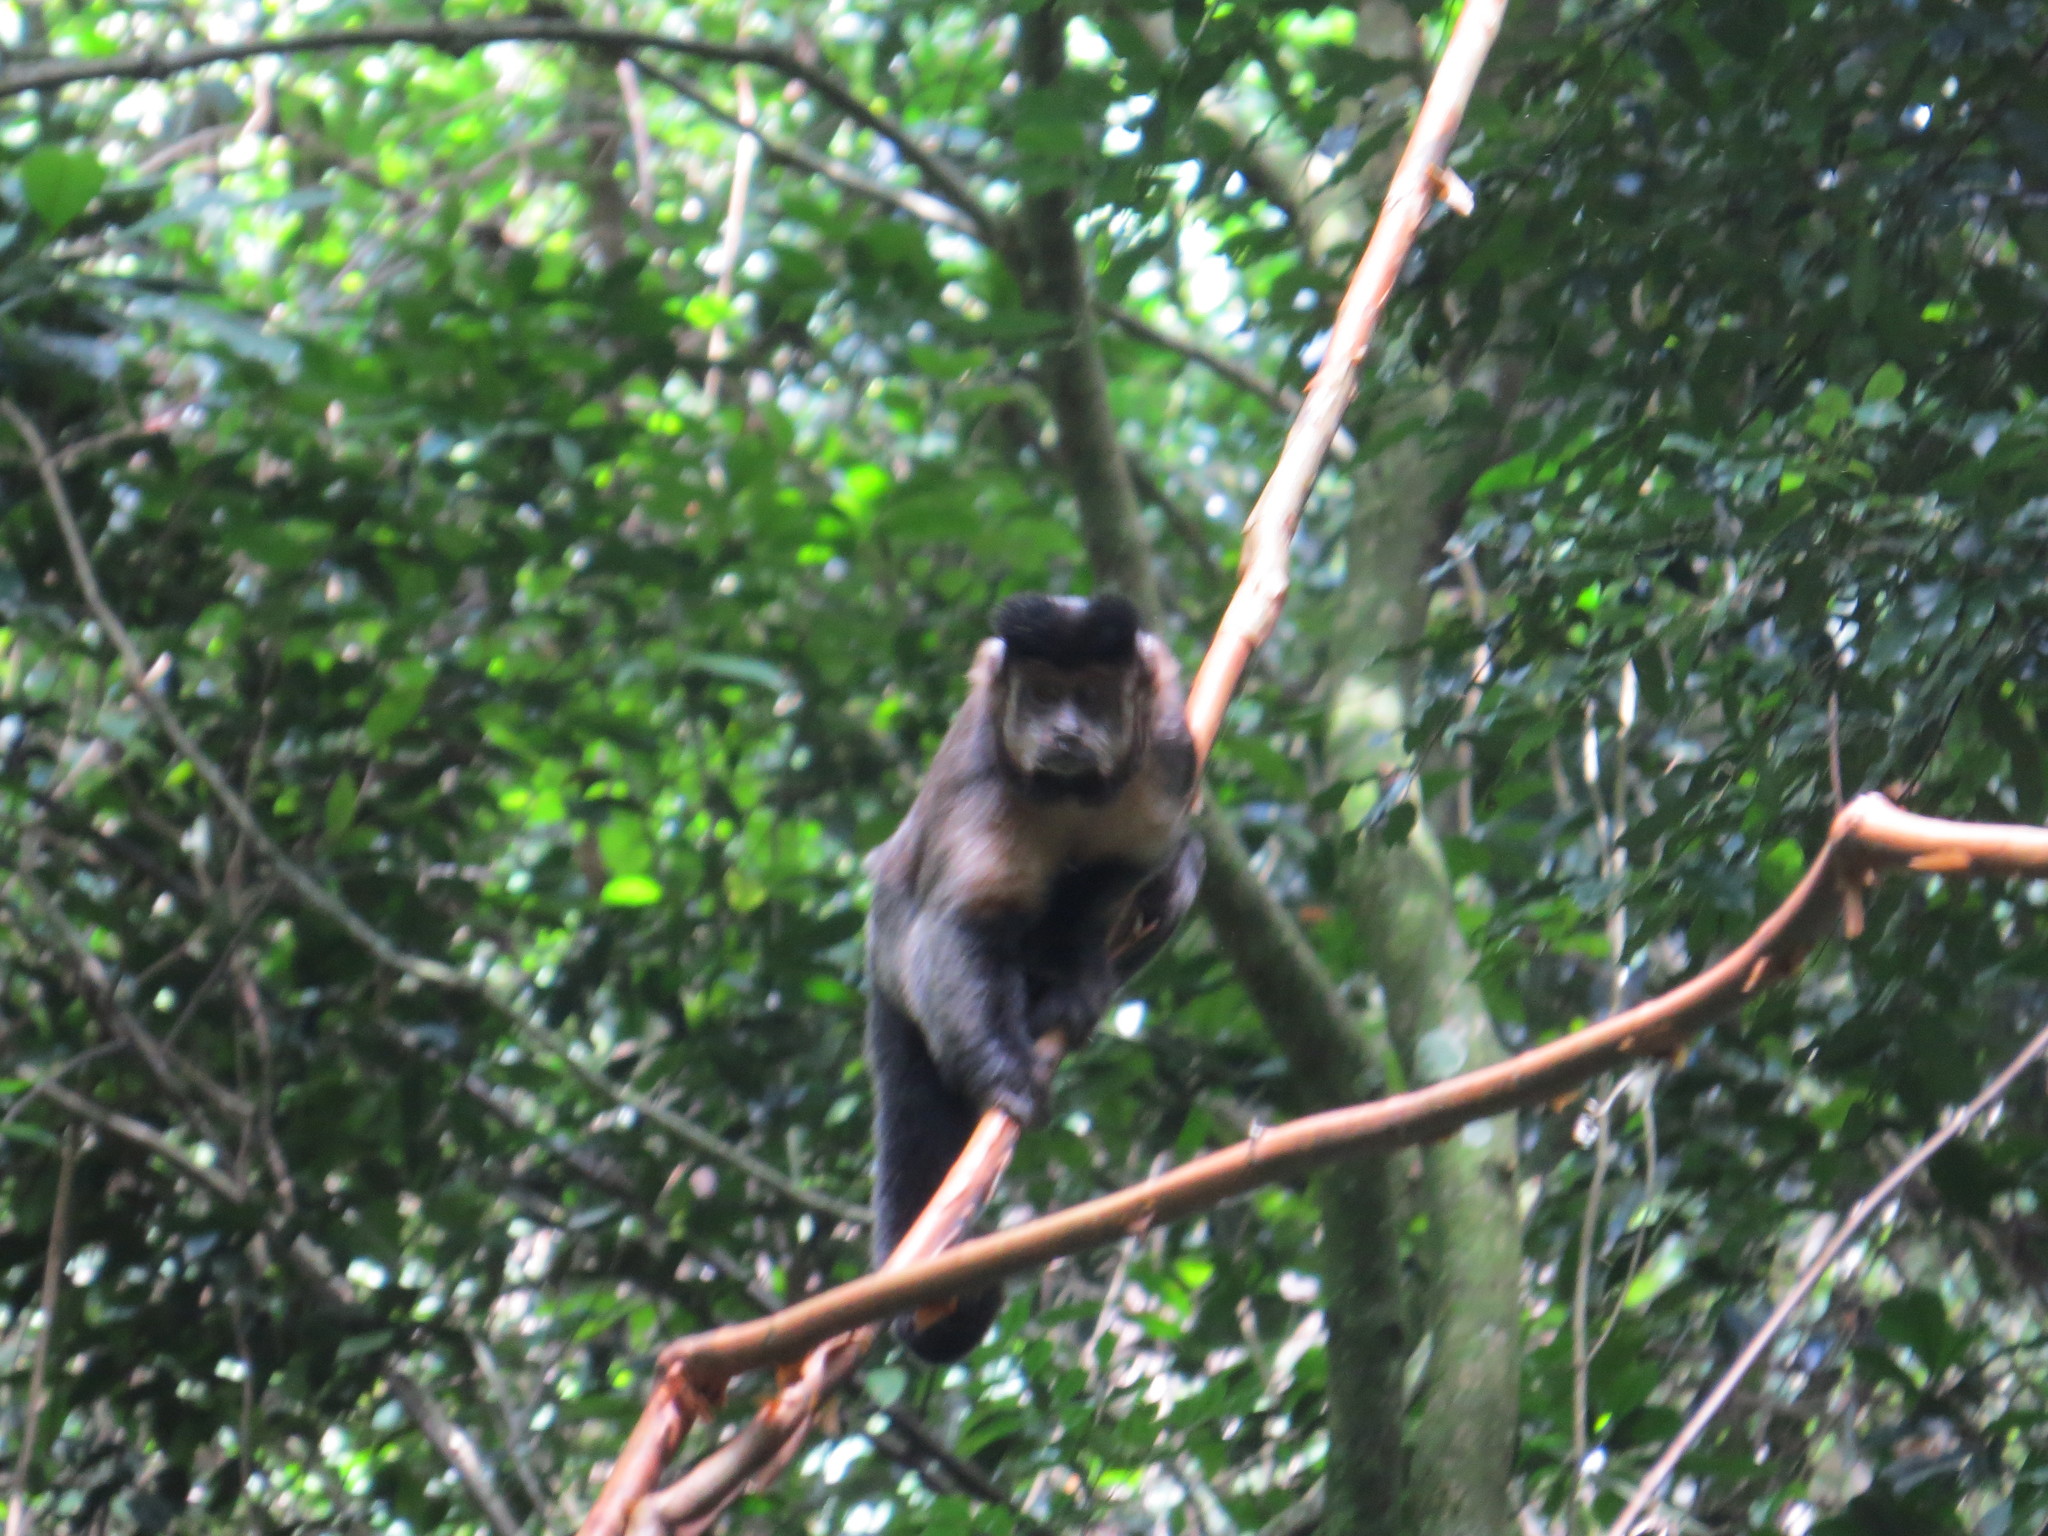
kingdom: Animalia
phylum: Chordata
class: Mammalia
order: Primates
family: Cebidae
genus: Sapajus
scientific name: Sapajus nigritus
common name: Black capuchin
